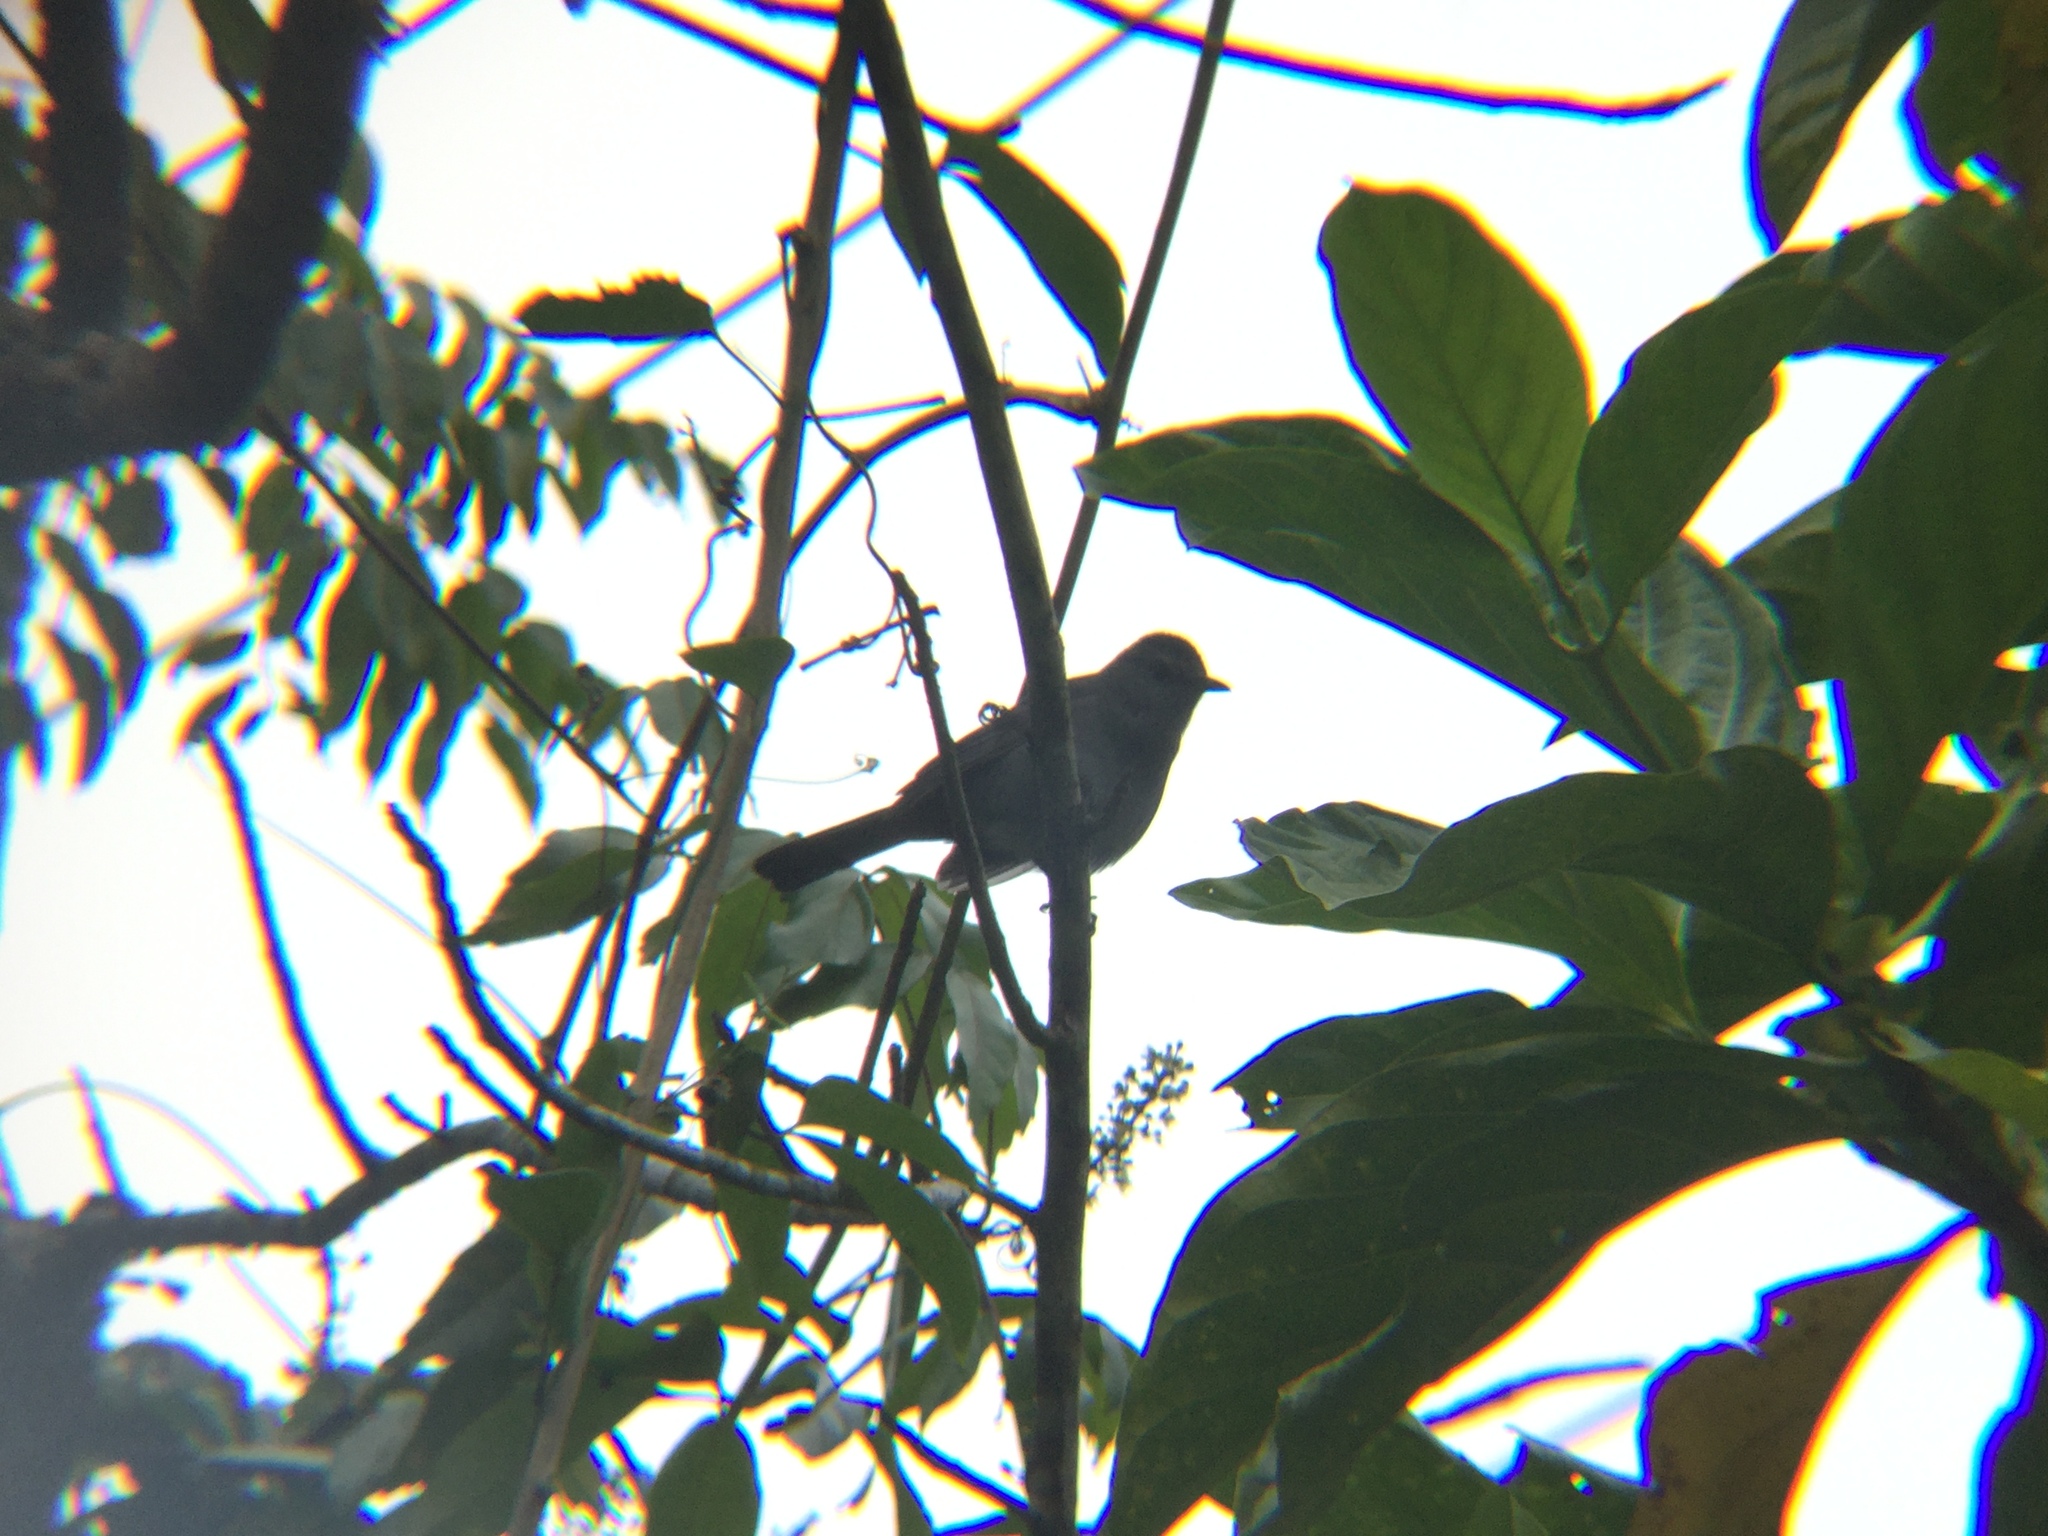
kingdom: Animalia
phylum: Chordata
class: Aves
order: Passeriformes
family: Mimidae
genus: Dumetella
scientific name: Dumetella carolinensis
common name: Gray catbird
